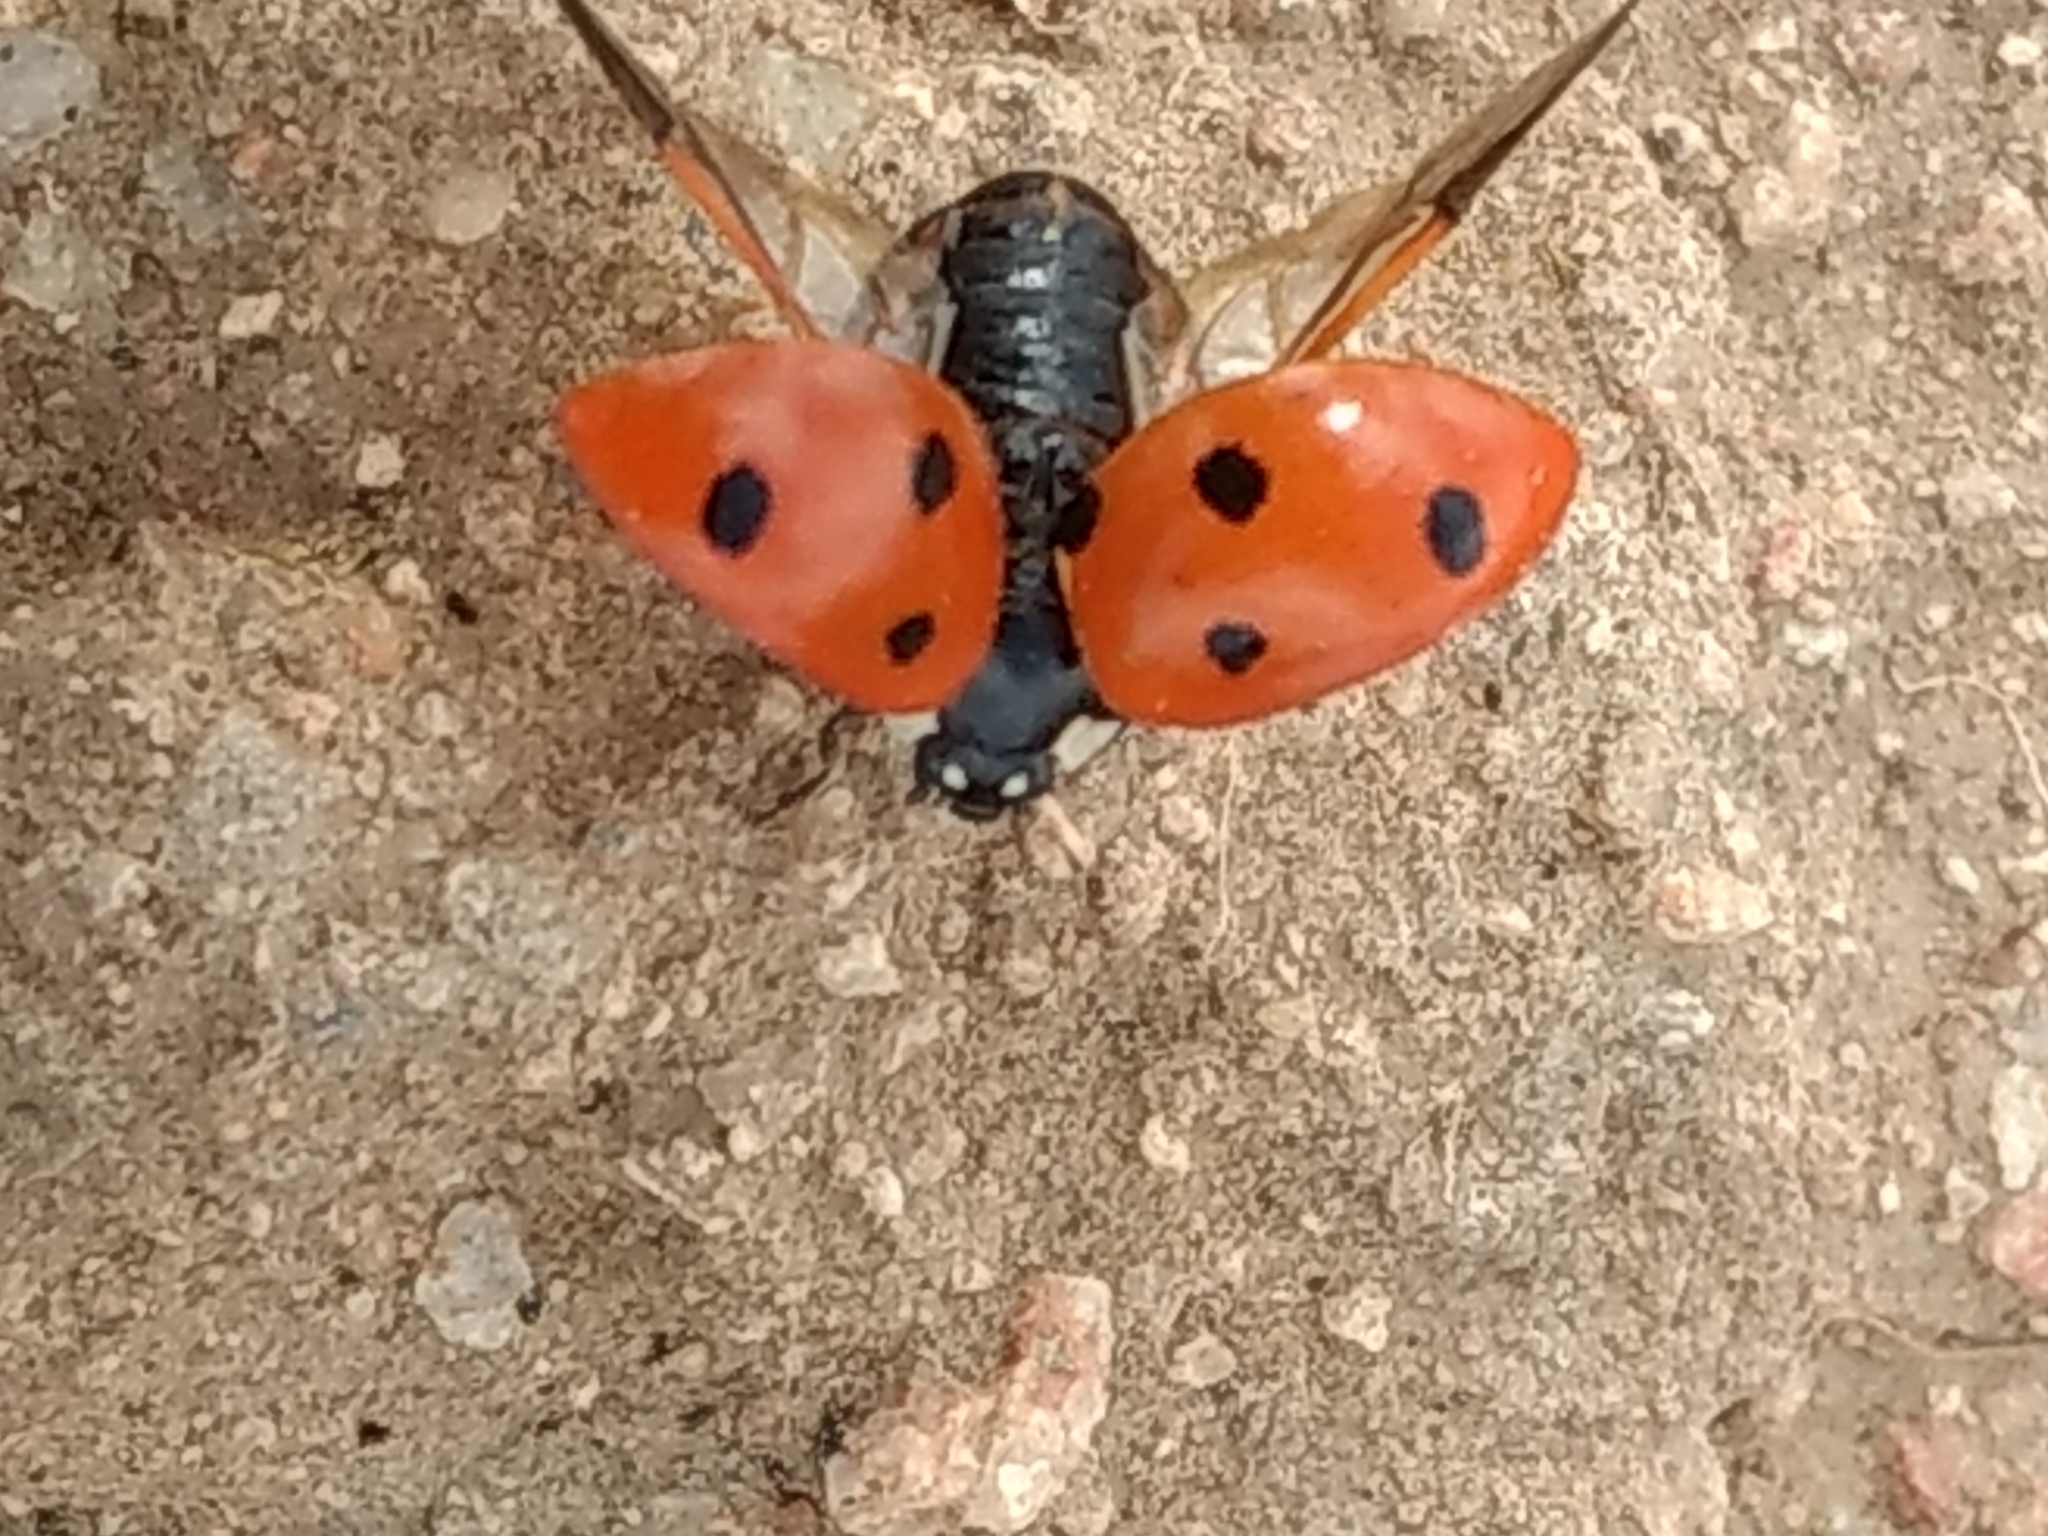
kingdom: Animalia
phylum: Arthropoda
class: Insecta
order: Coleoptera
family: Coccinellidae
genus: Coccinella
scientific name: Coccinella septempunctata
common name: Sevenspotted lady beetle
